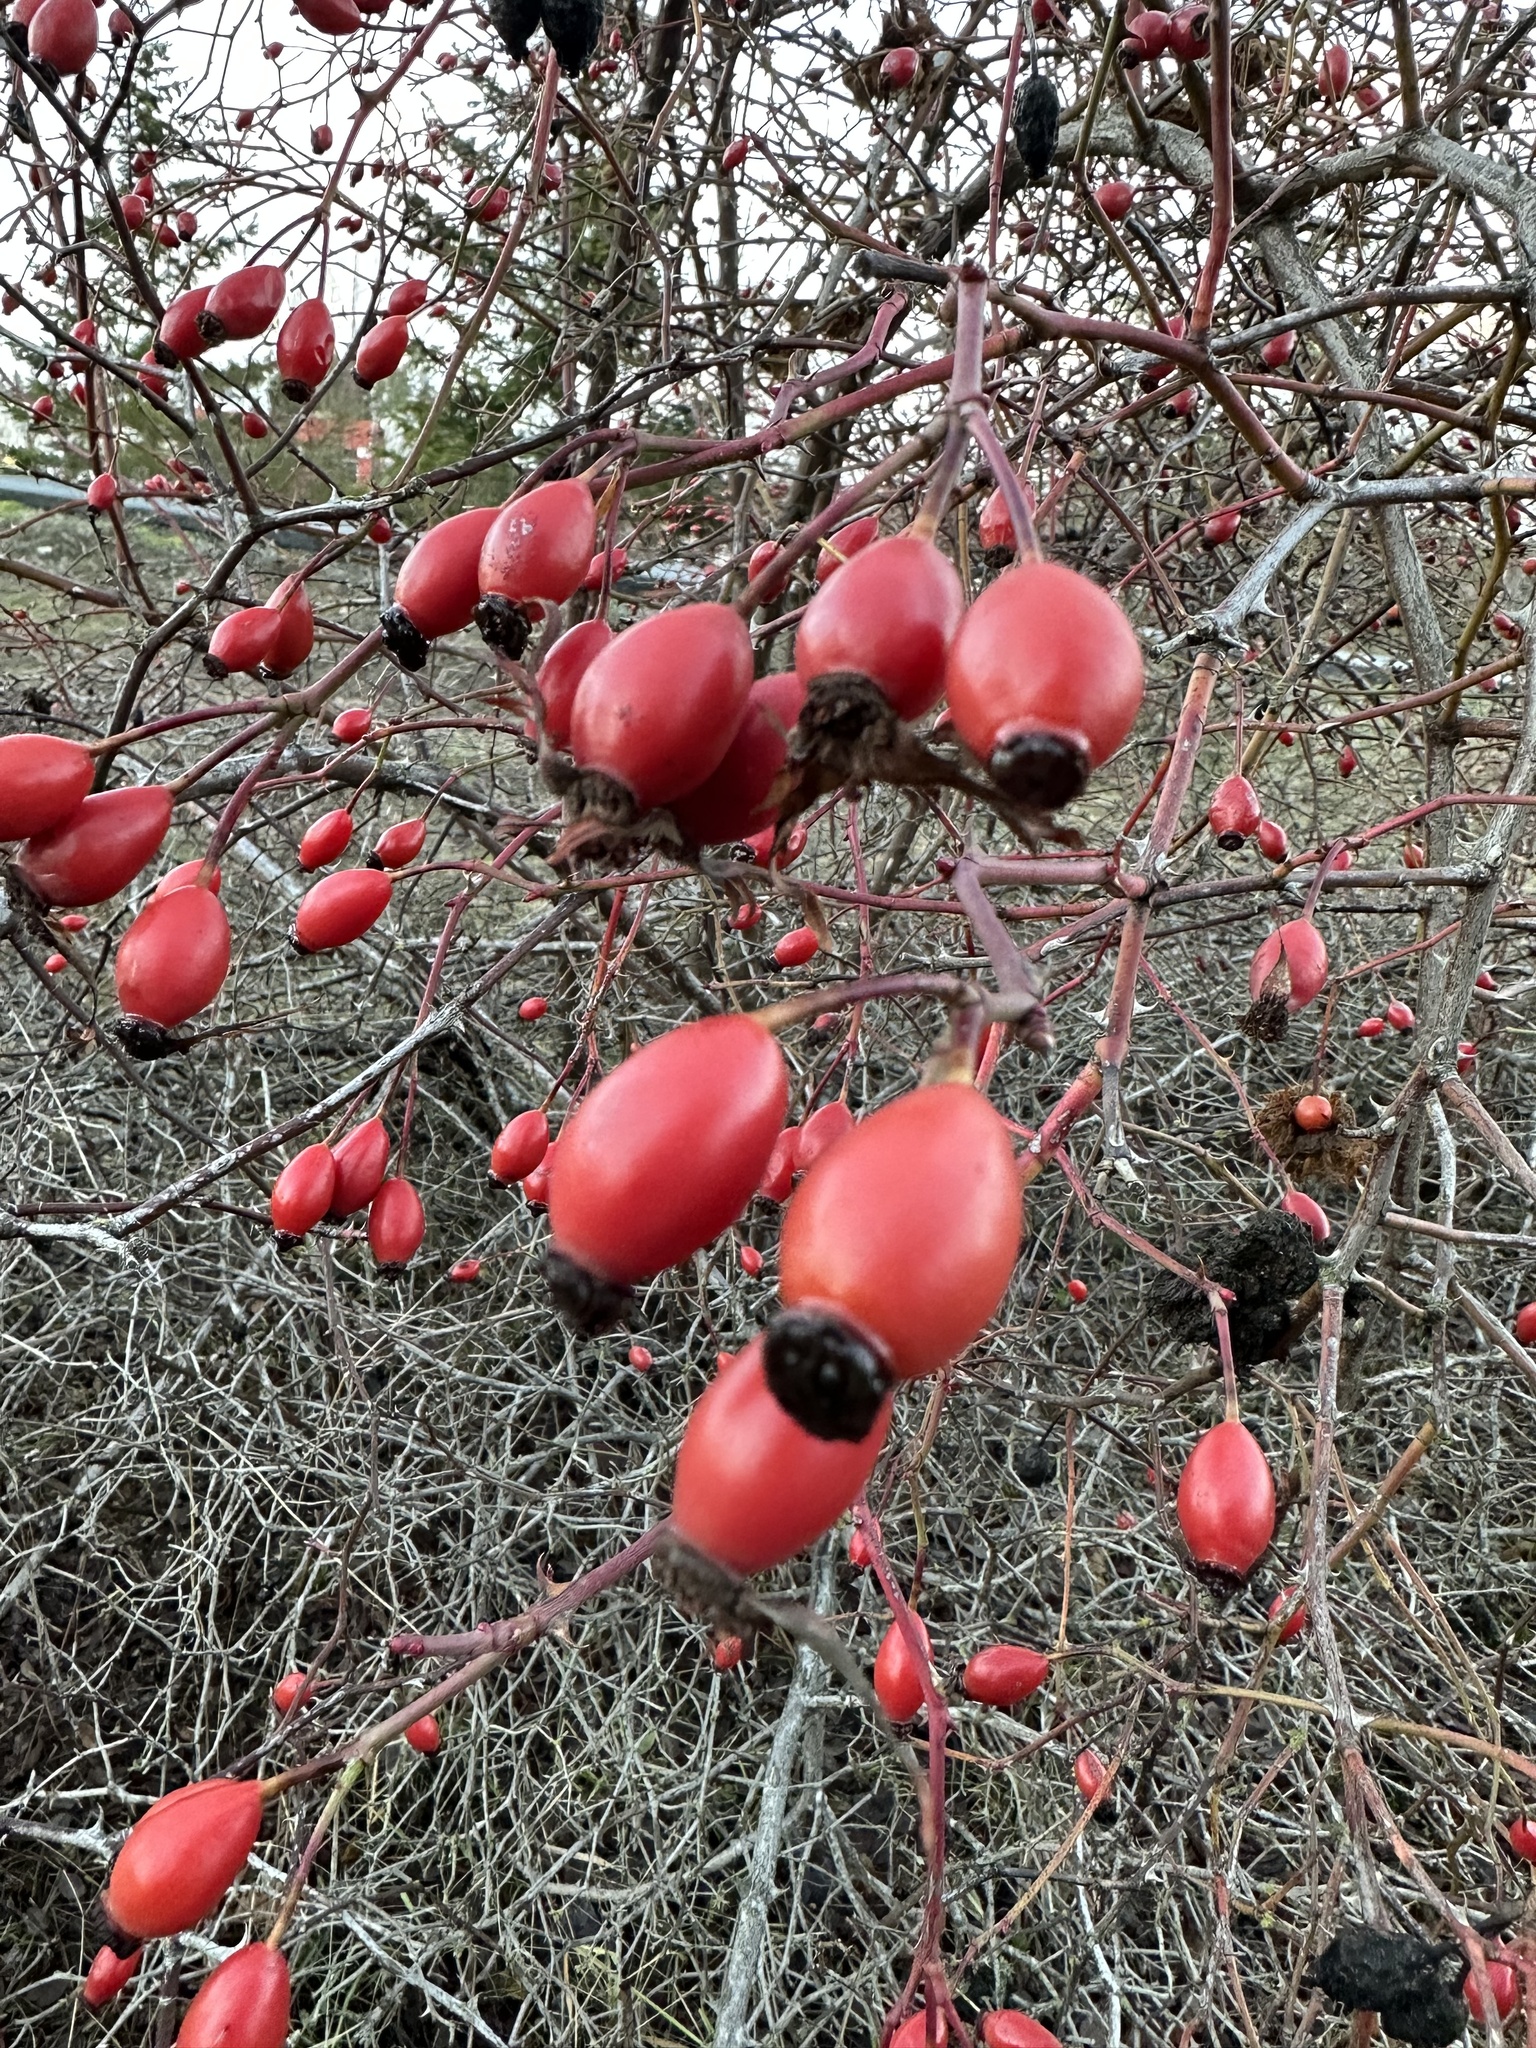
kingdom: Plantae
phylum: Tracheophyta
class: Magnoliopsida
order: Rosales
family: Rosaceae
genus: Rosa
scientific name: Rosa canina
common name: Dog rose
